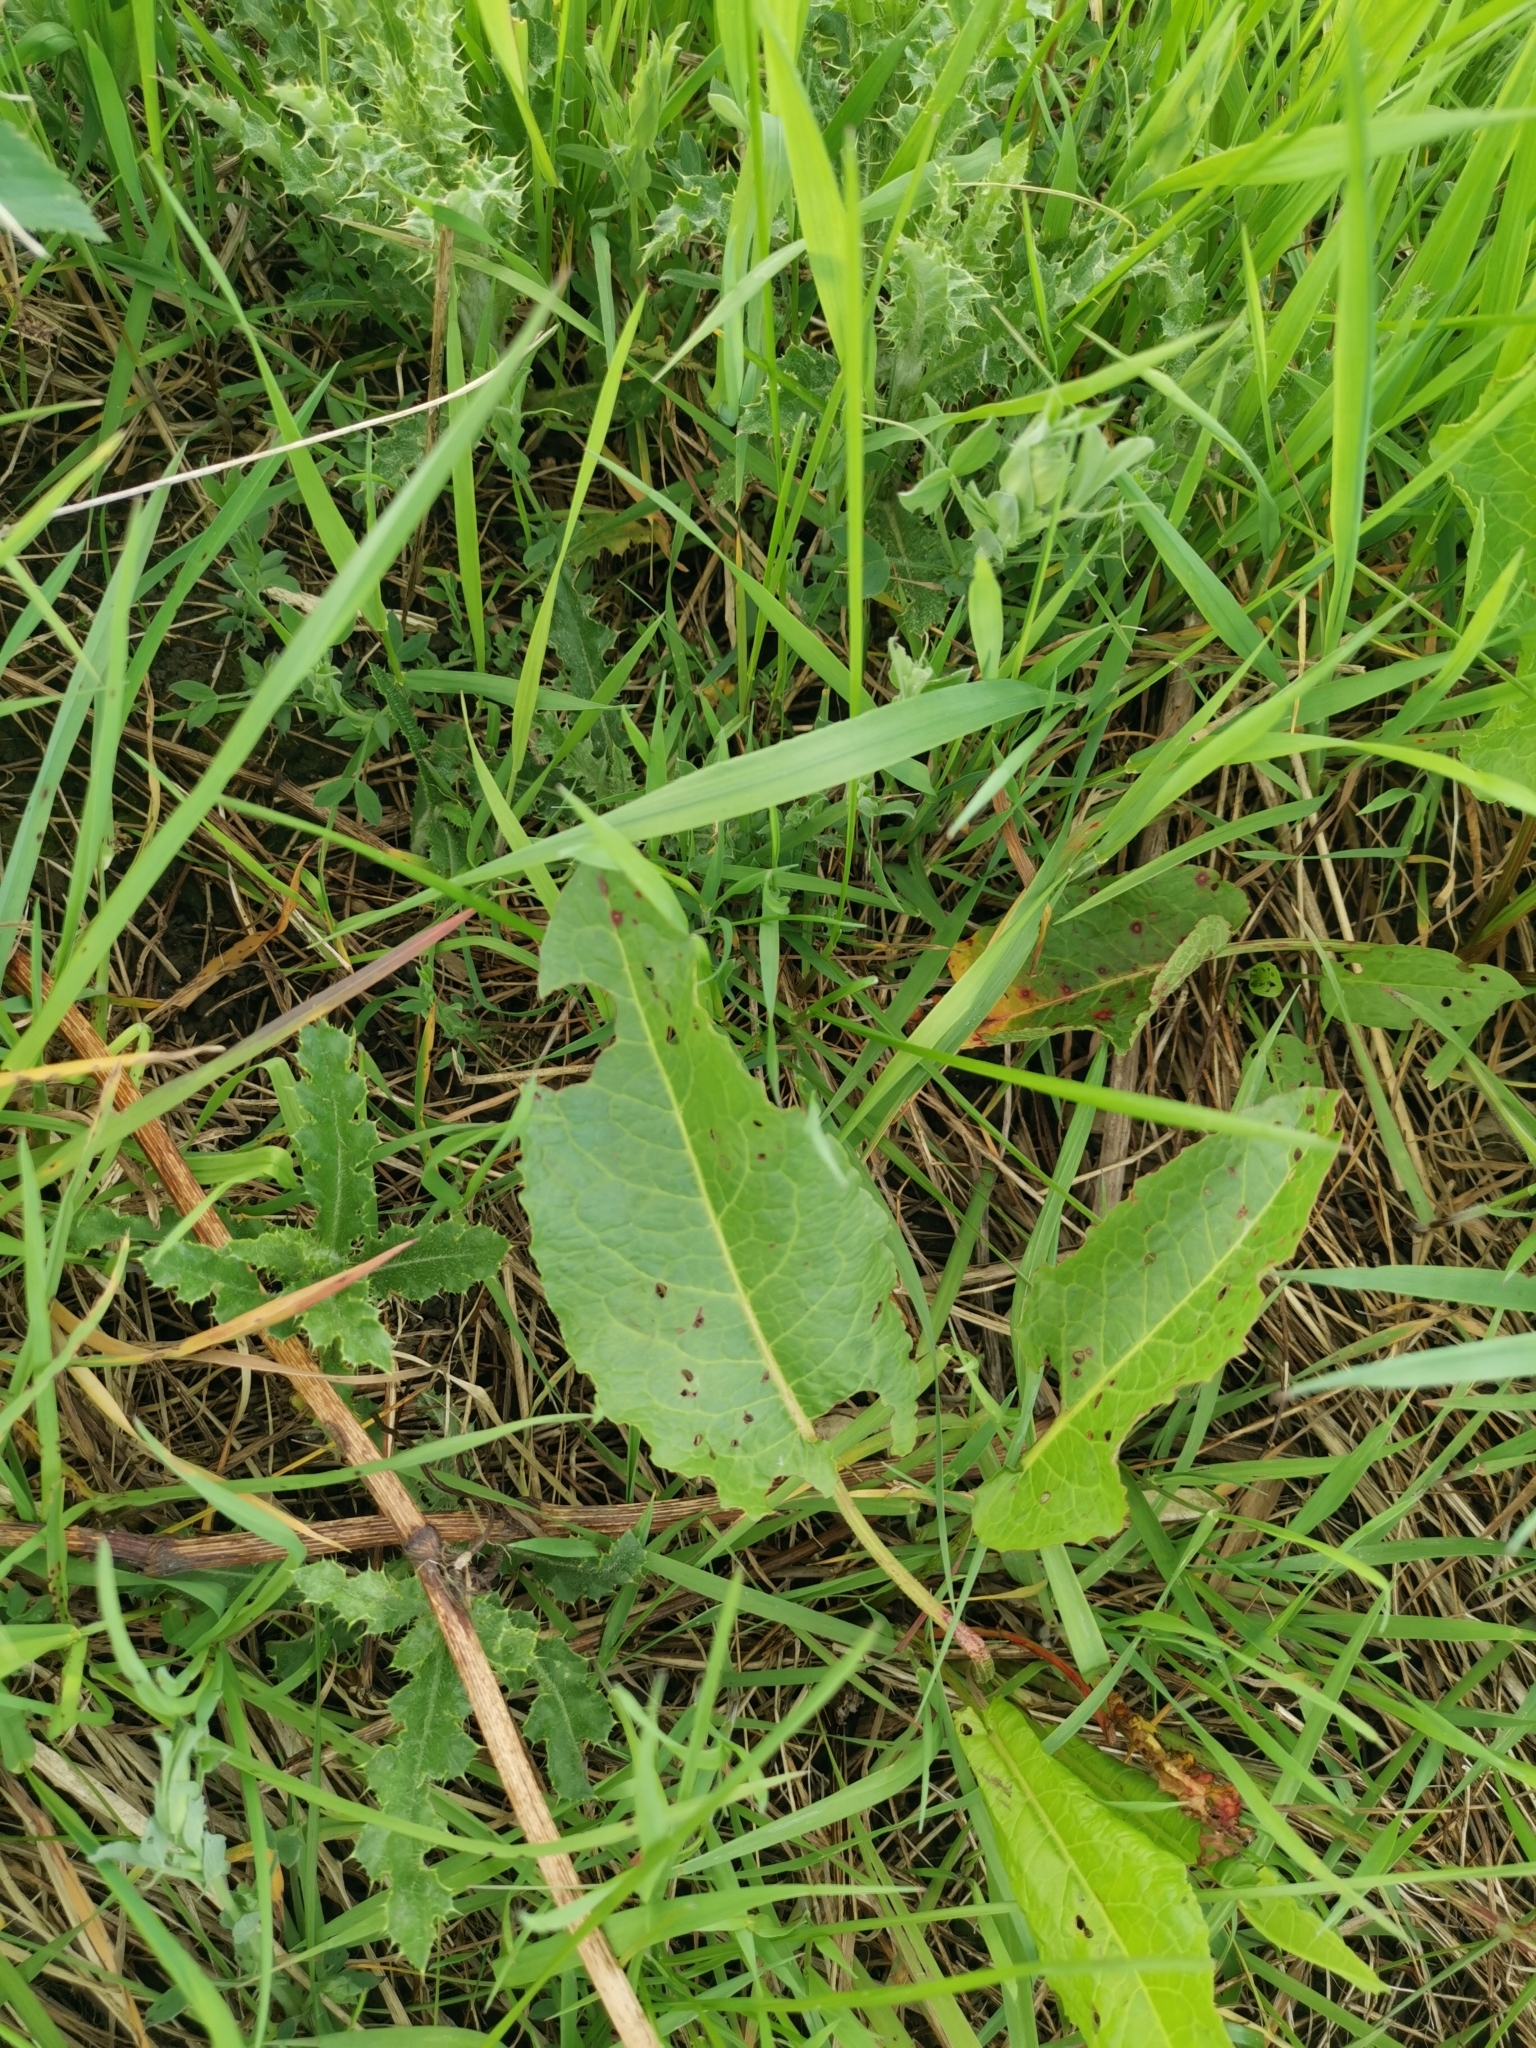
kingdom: Plantae
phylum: Tracheophyta
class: Magnoliopsida
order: Caryophyllales
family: Polygonaceae
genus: Rumex
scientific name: Rumex obtusifolius
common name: Bitter dock
